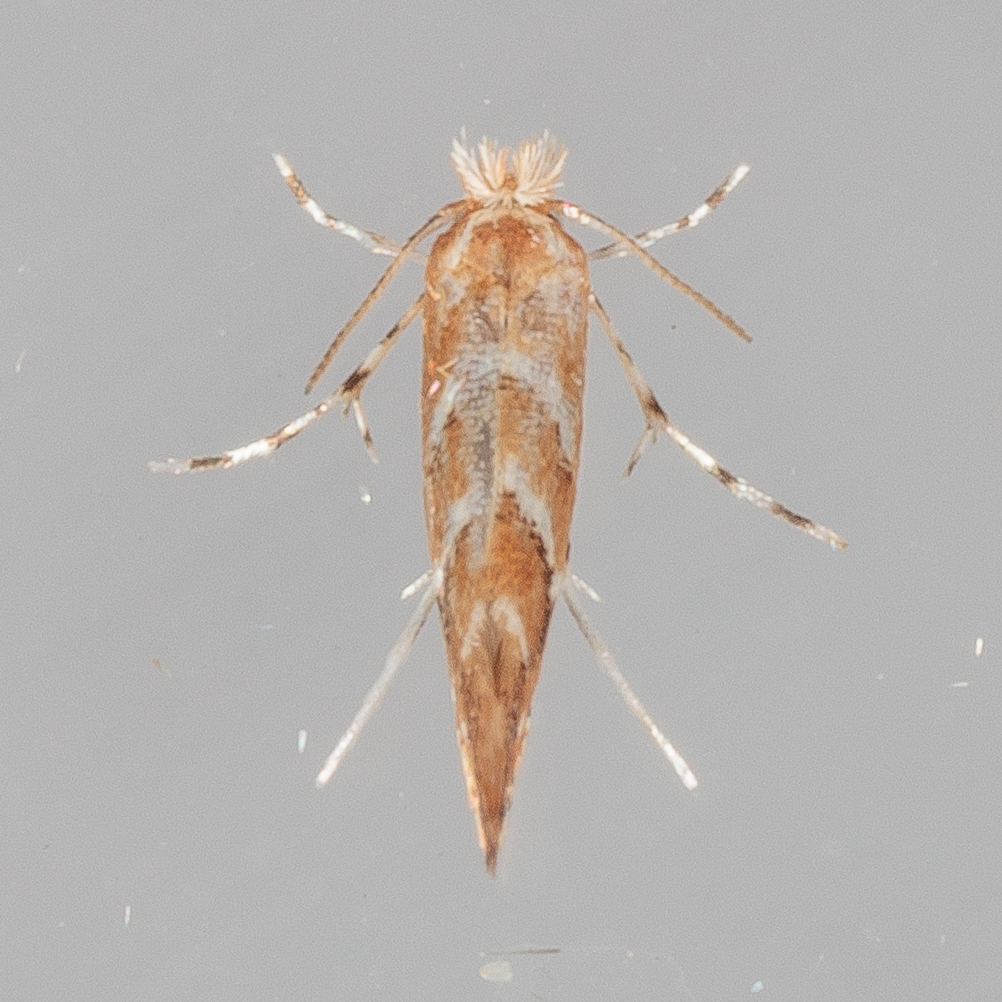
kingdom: Animalia
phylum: Arthropoda
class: Insecta
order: Lepidoptera
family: Gracillariidae
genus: Cameraria
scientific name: Cameraria caryaefoliella
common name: Pecan leafminer moth
